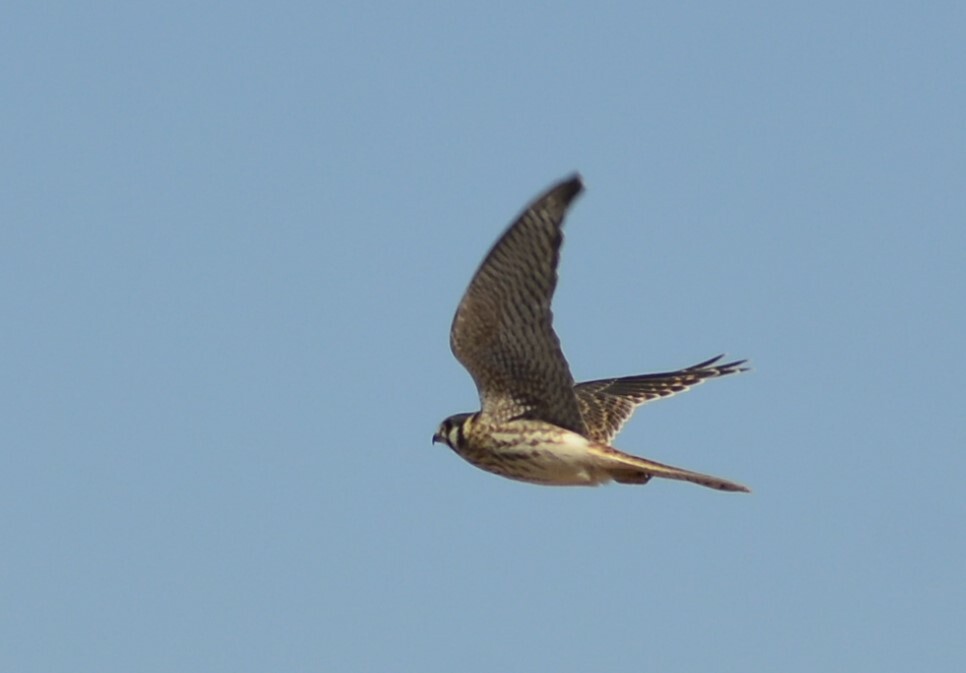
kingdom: Animalia
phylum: Chordata
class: Aves
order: Falconiformes
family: Falconidae
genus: Falco
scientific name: Falco sparverius
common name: American kestrel
